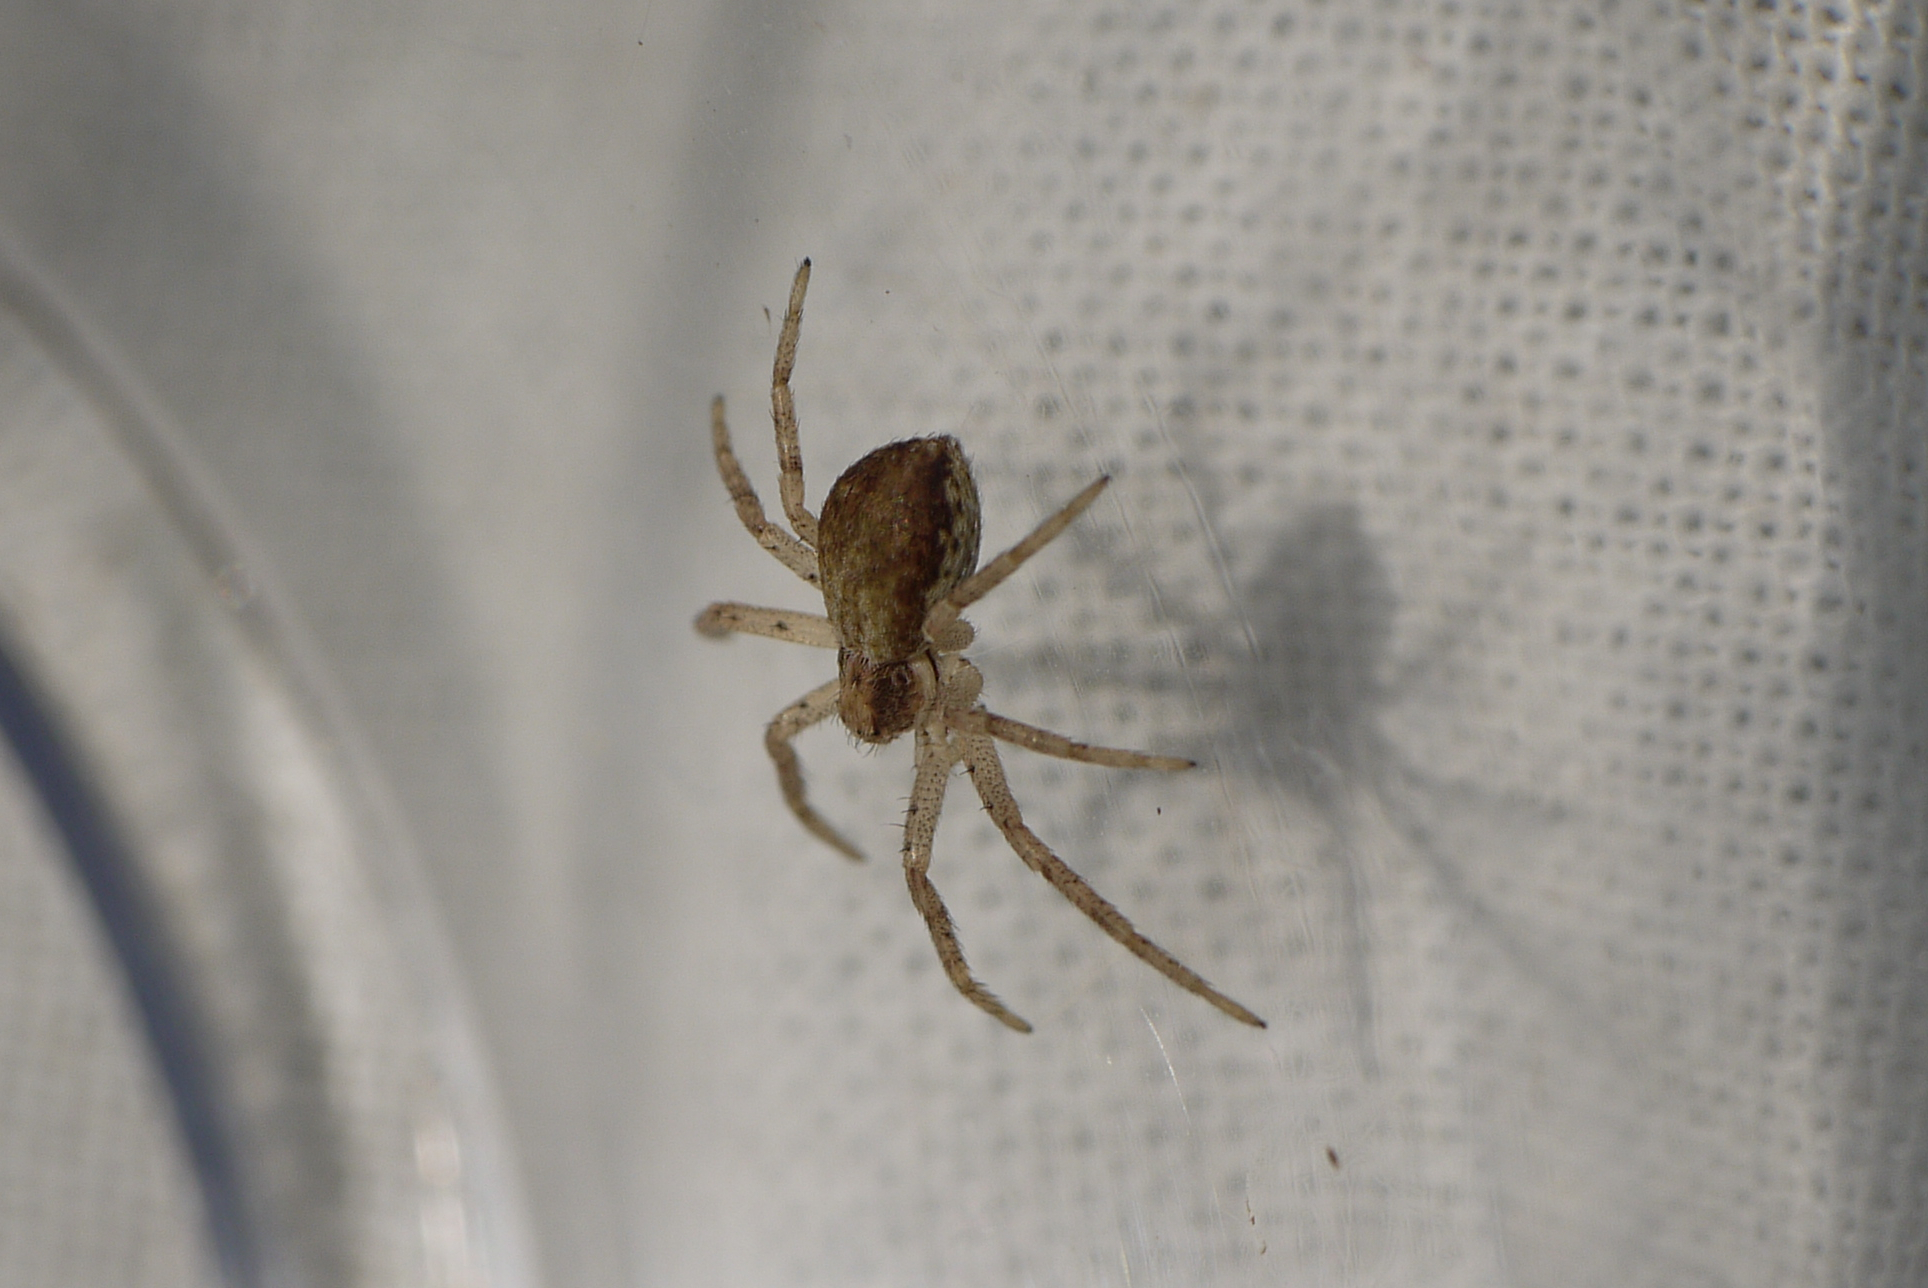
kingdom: Animalia
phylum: Arthropoda
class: Arachnida
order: Araneae
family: Philodromidae
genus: Philodromus
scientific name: Philodromus dispar
